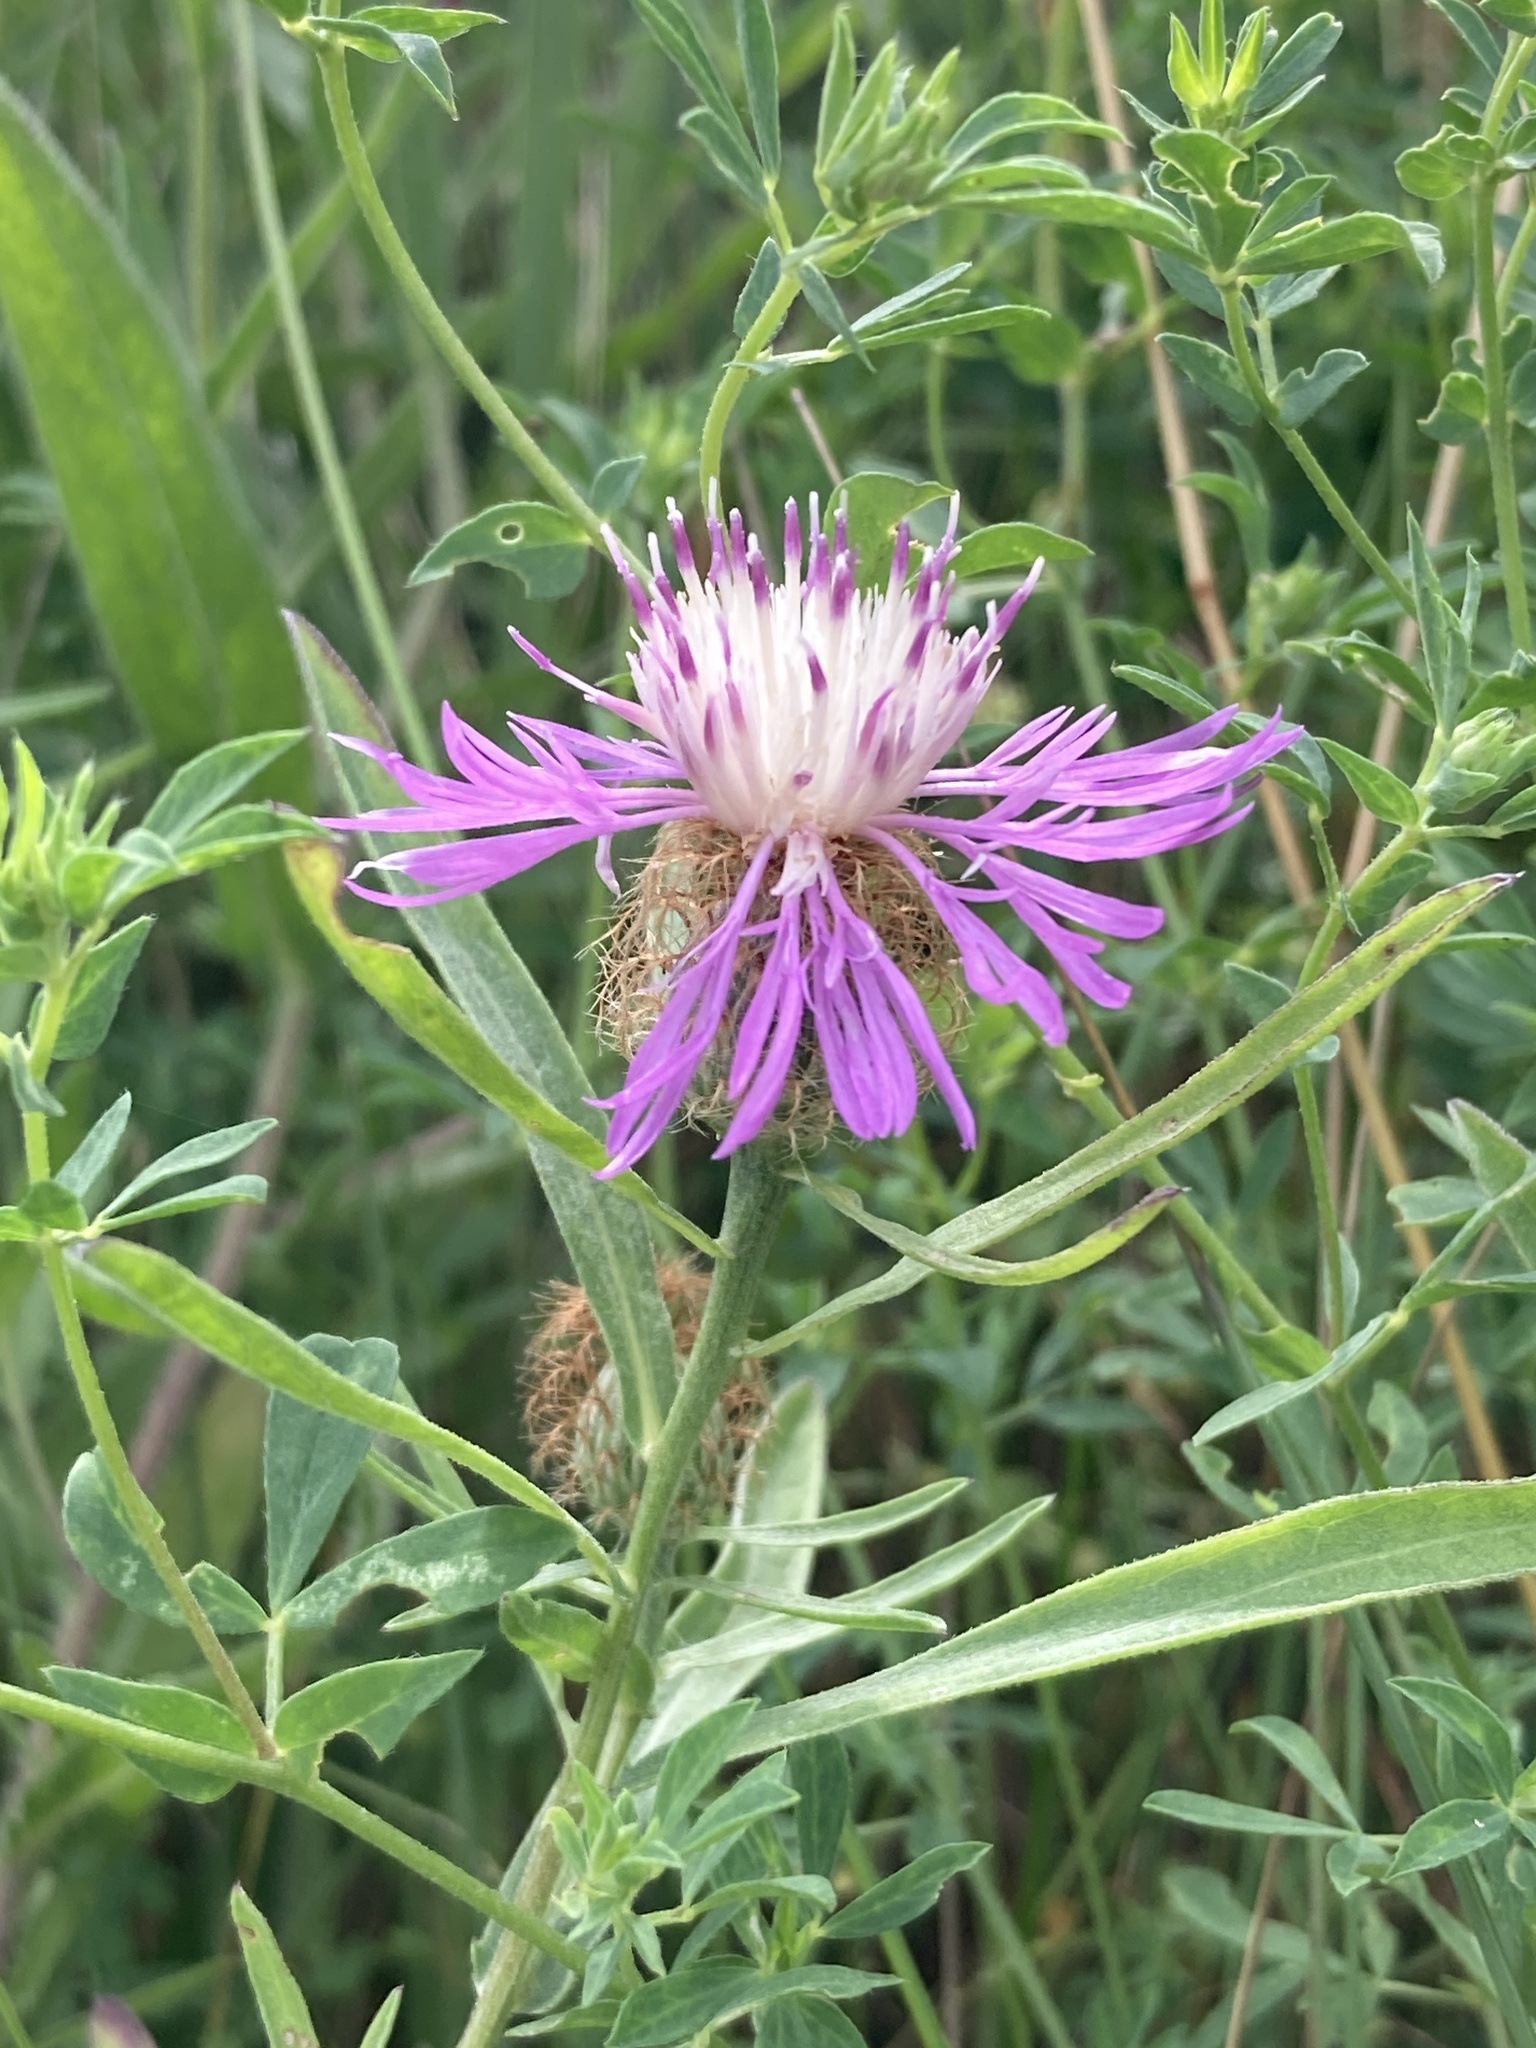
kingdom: Plantae
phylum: Tracheophyta
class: Magnoliopsida
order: Asterales
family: Asteraceae
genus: Centaurea
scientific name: Centaurea trichocephala
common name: Feather-head knapweed
